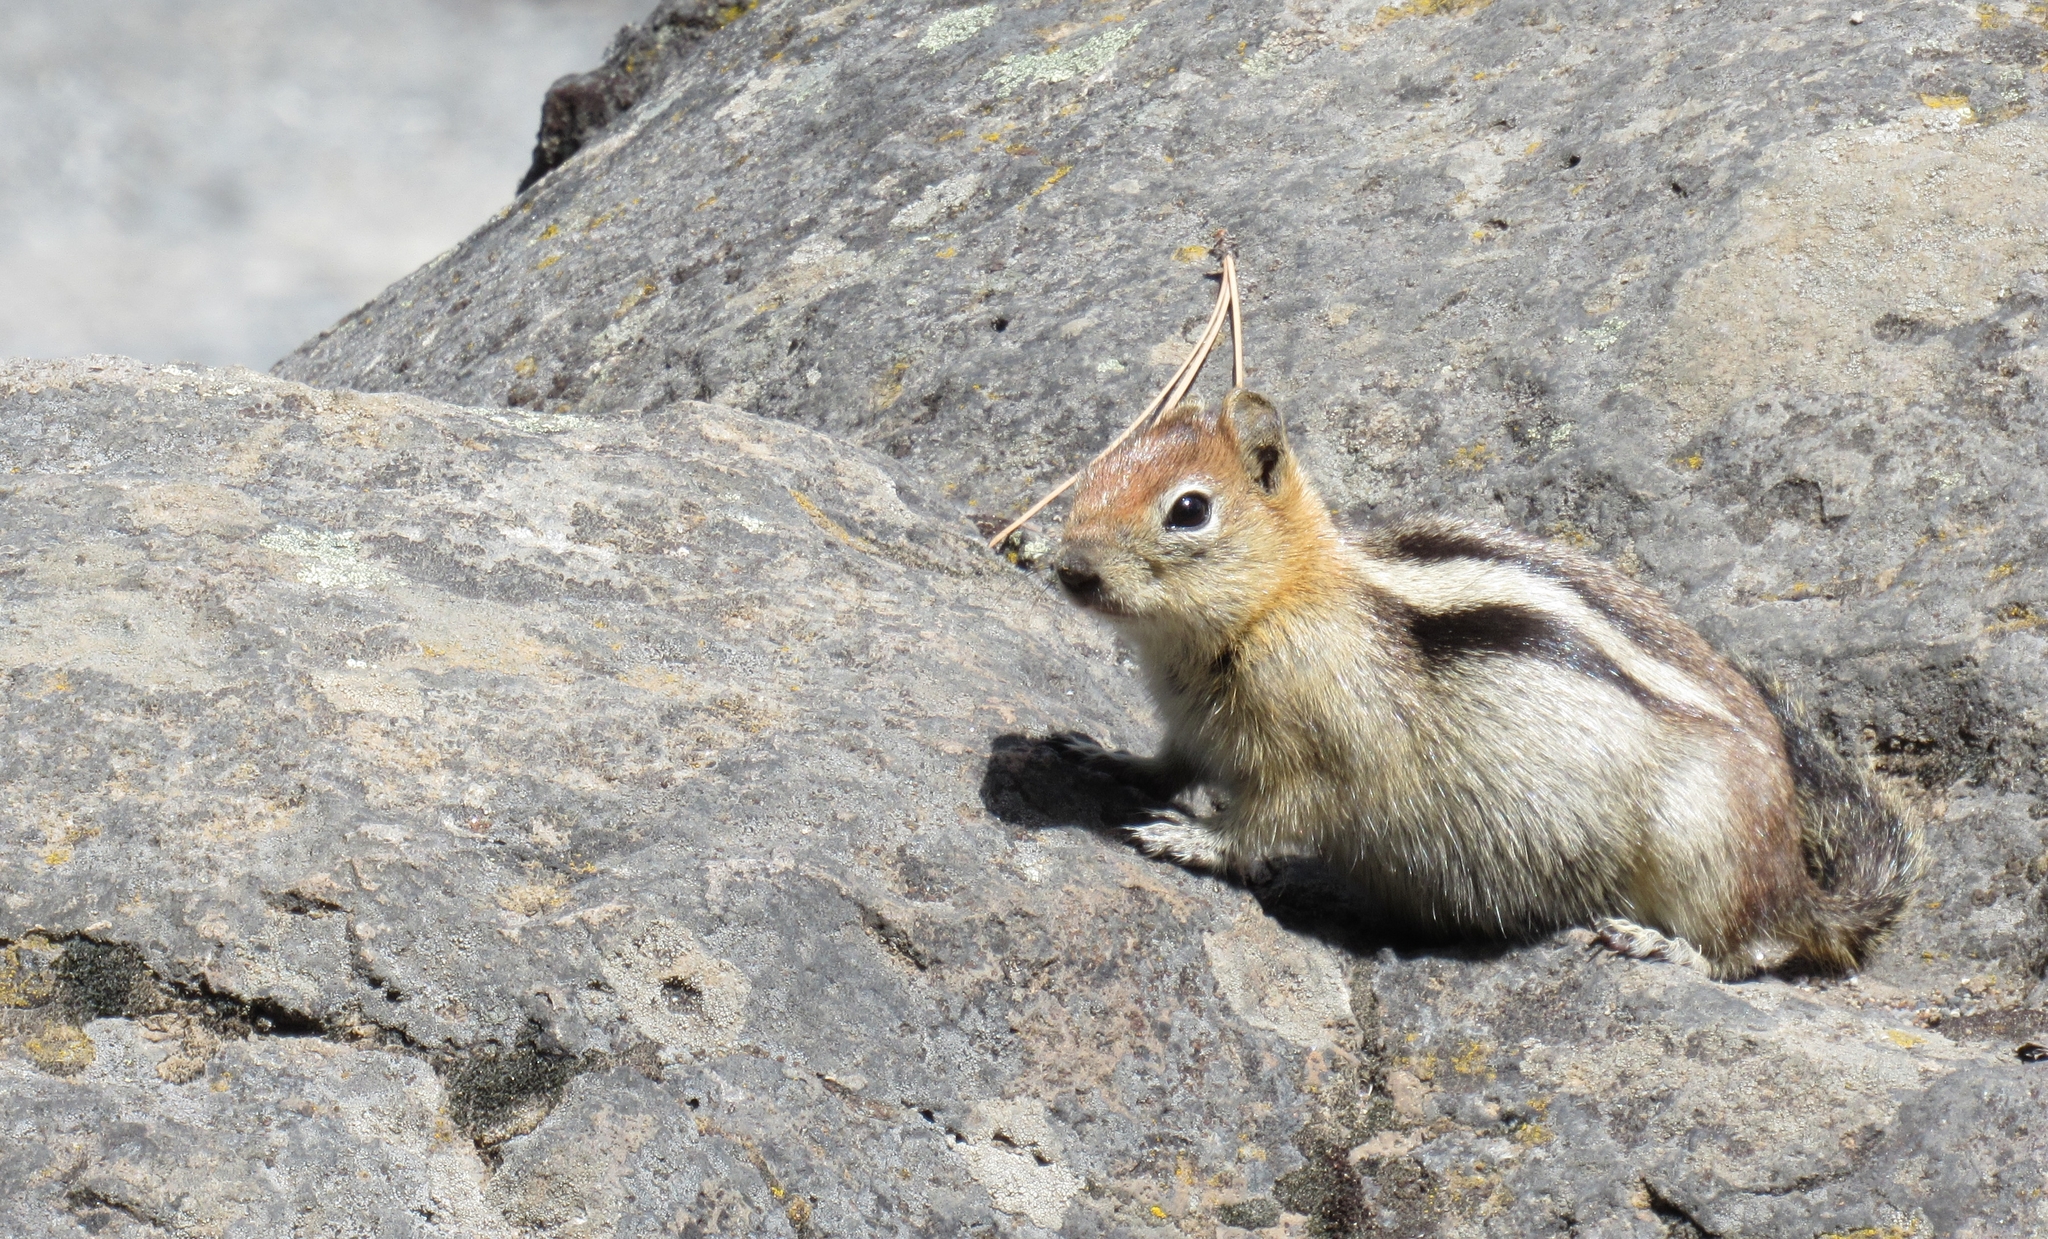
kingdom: Animalia
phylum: Chordata
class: Mammalia
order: Rodentia
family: Sciuridae
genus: Callospermophilus
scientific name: Callospermophilus lateralis
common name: Golden-mantled ground squirrel
